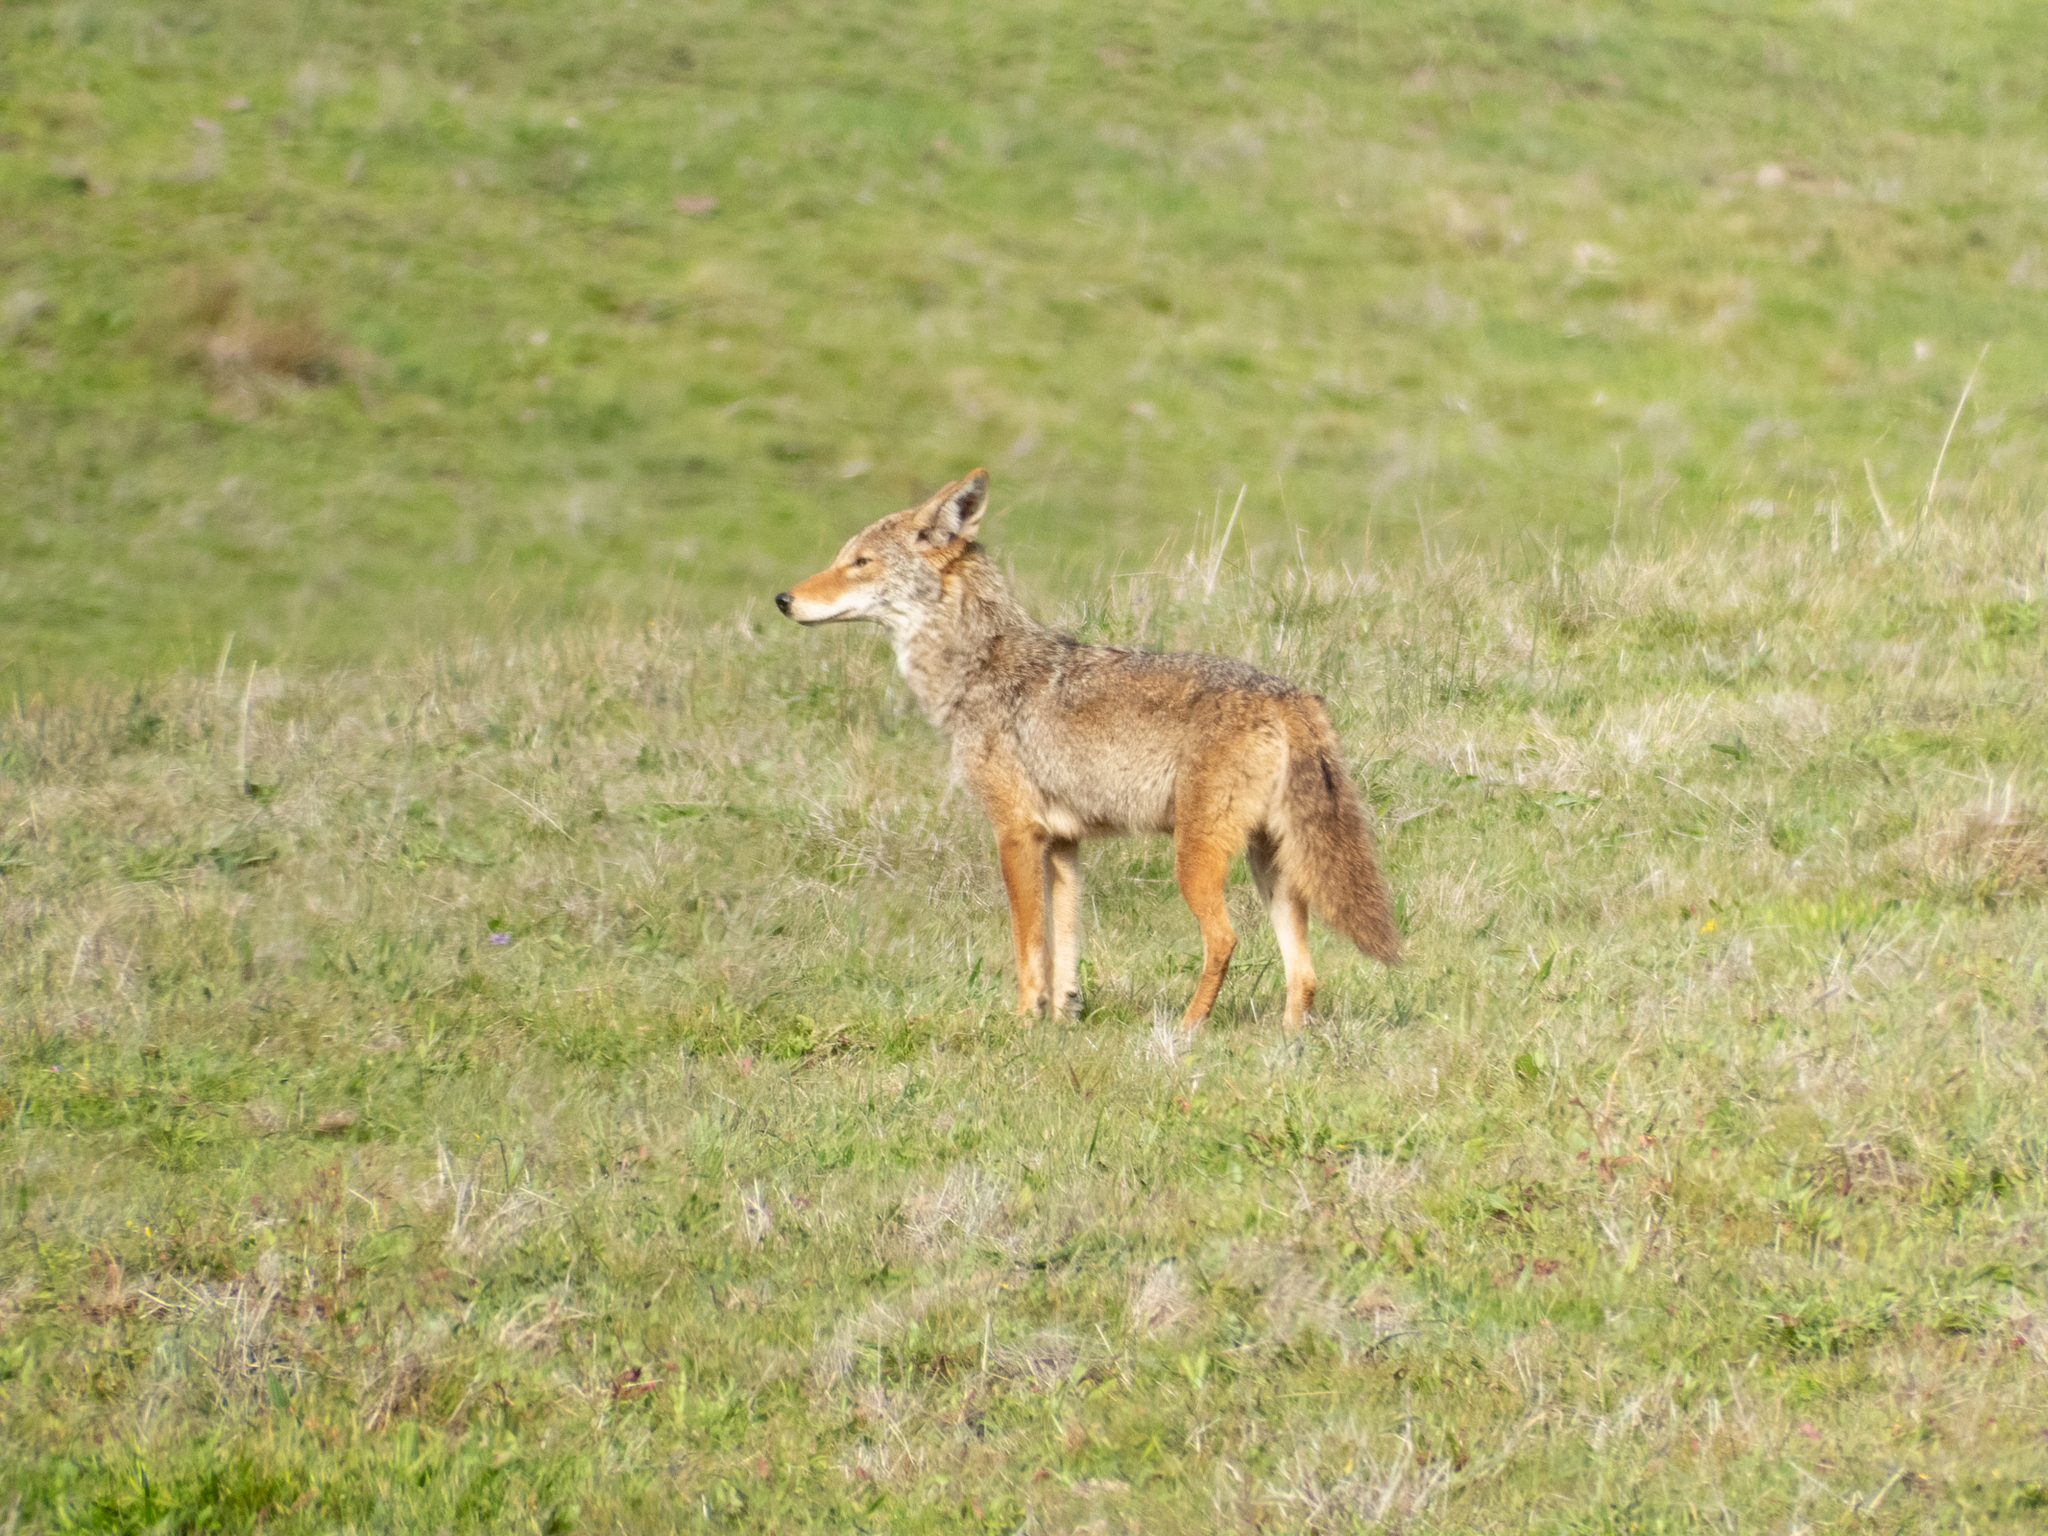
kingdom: Animalia
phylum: Chordata
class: Mammalia
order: Carnivora
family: Canidae
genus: Canis
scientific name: Canis latrans
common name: Coyote
